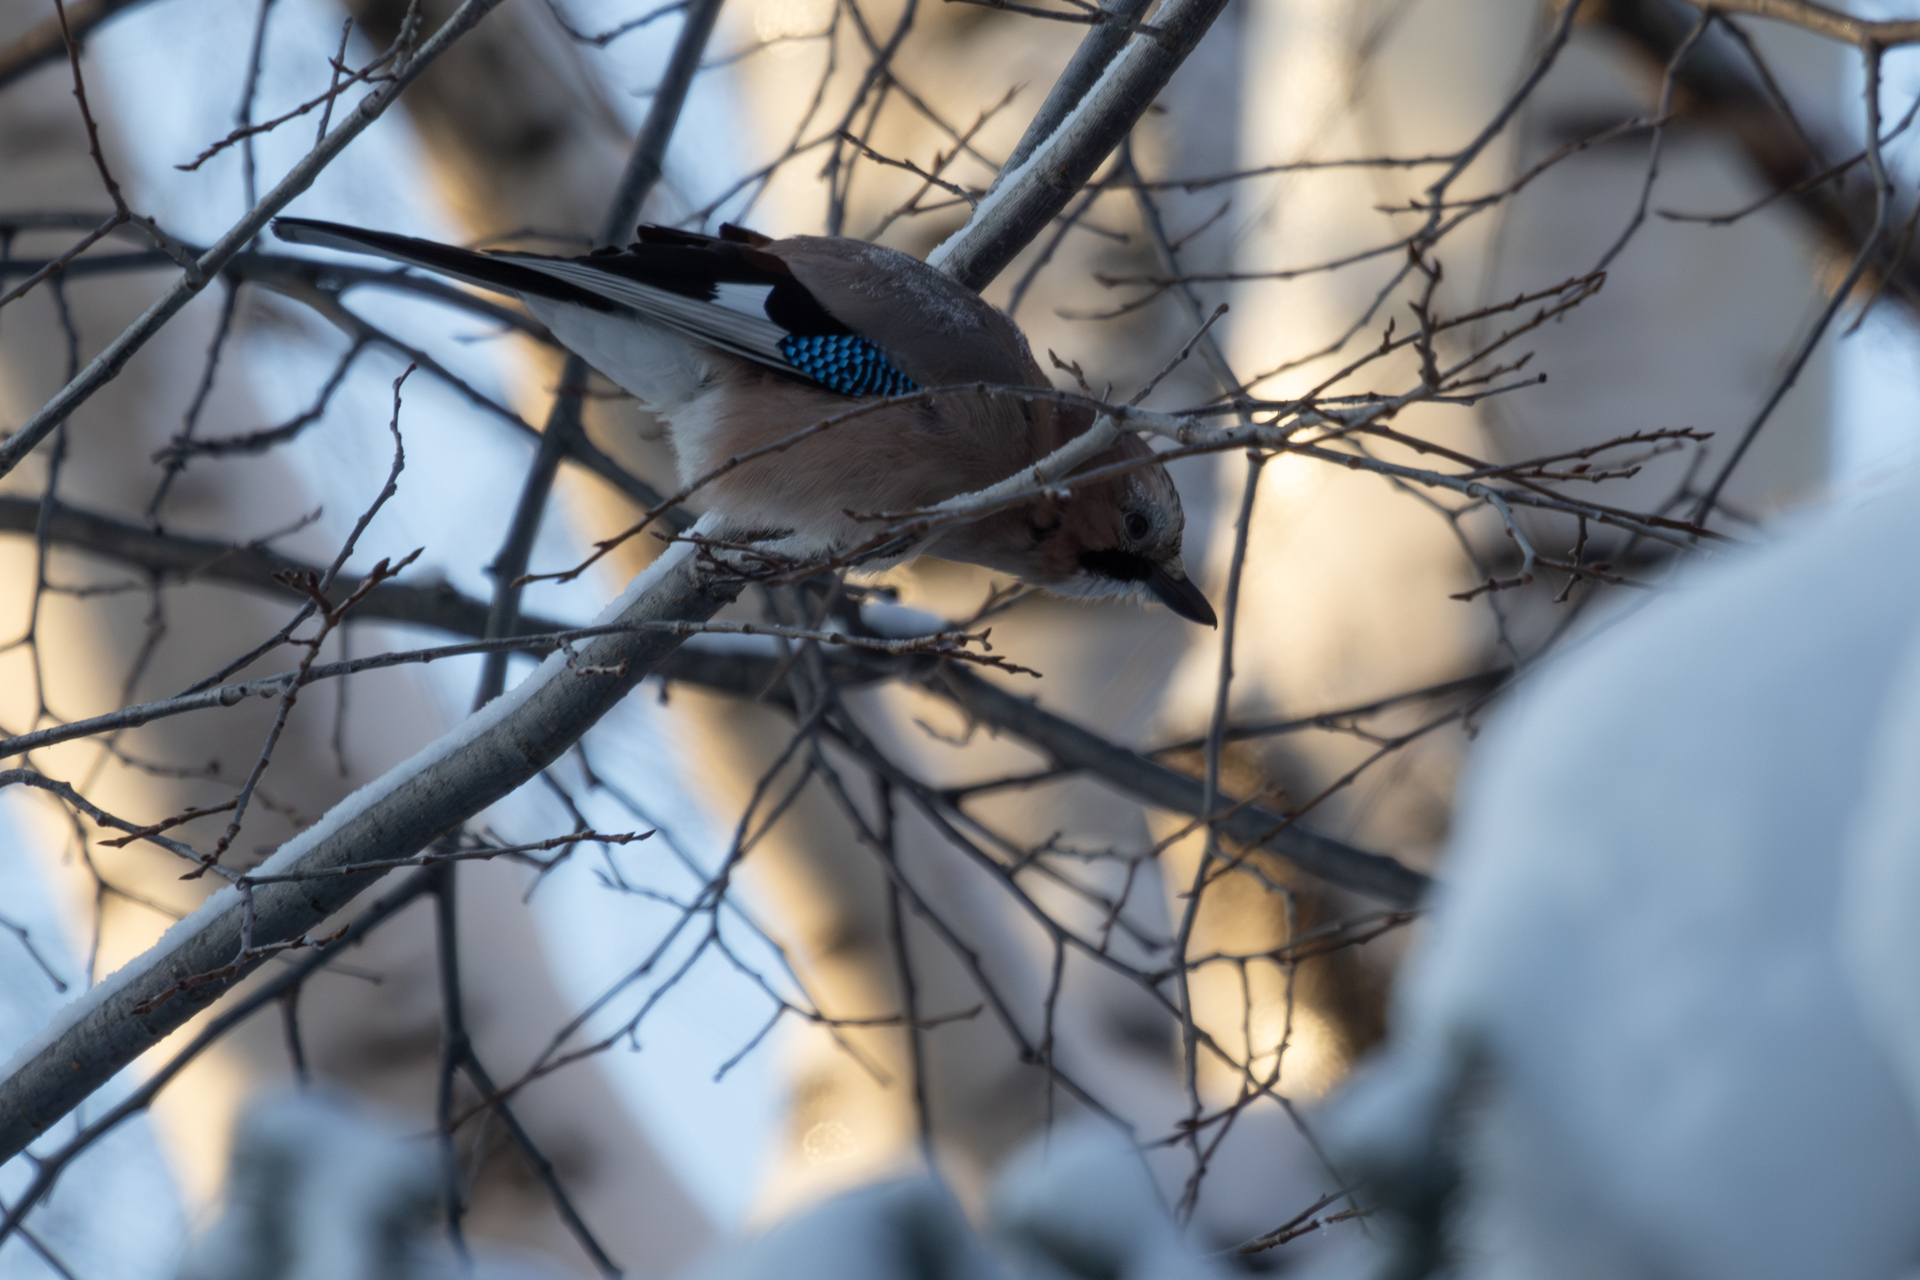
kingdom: Animalia
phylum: Chordata
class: Aves
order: Passeriformes
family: Corvidae
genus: Garrulus
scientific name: Garrulus glandarius
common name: Eurasian jay
